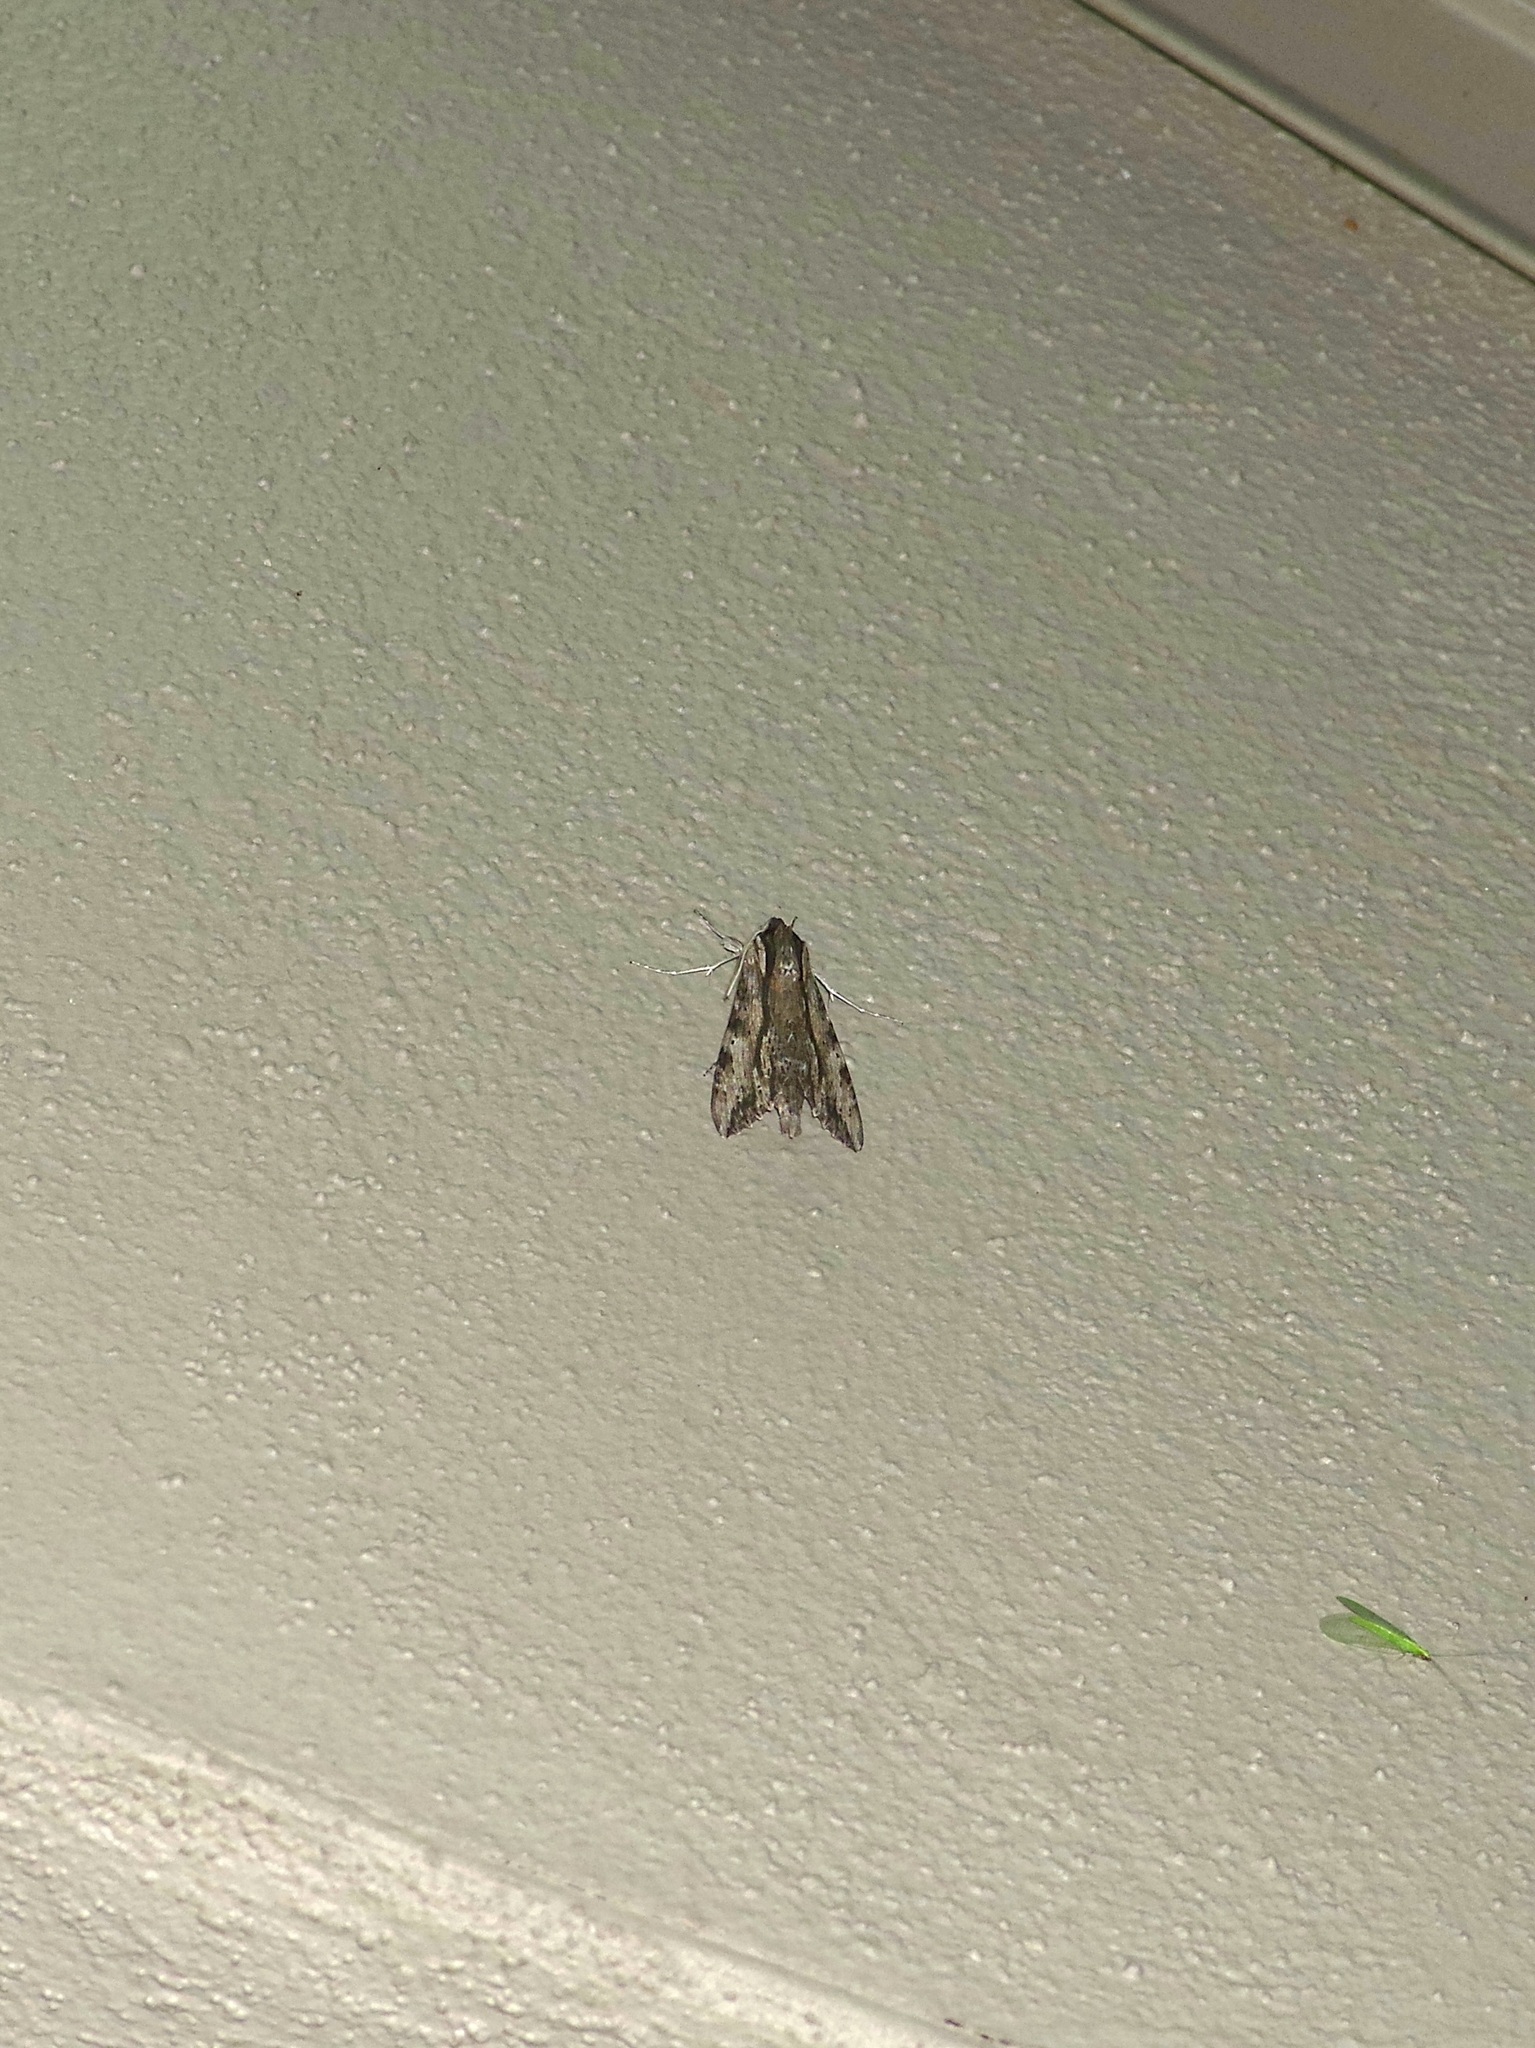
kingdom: Animalia
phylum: Arthropoda
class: Insecta
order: Lepidoptera
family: Sphingidae
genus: Erinnyis
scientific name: Erinnyis obscura
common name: Obscure sphinx
